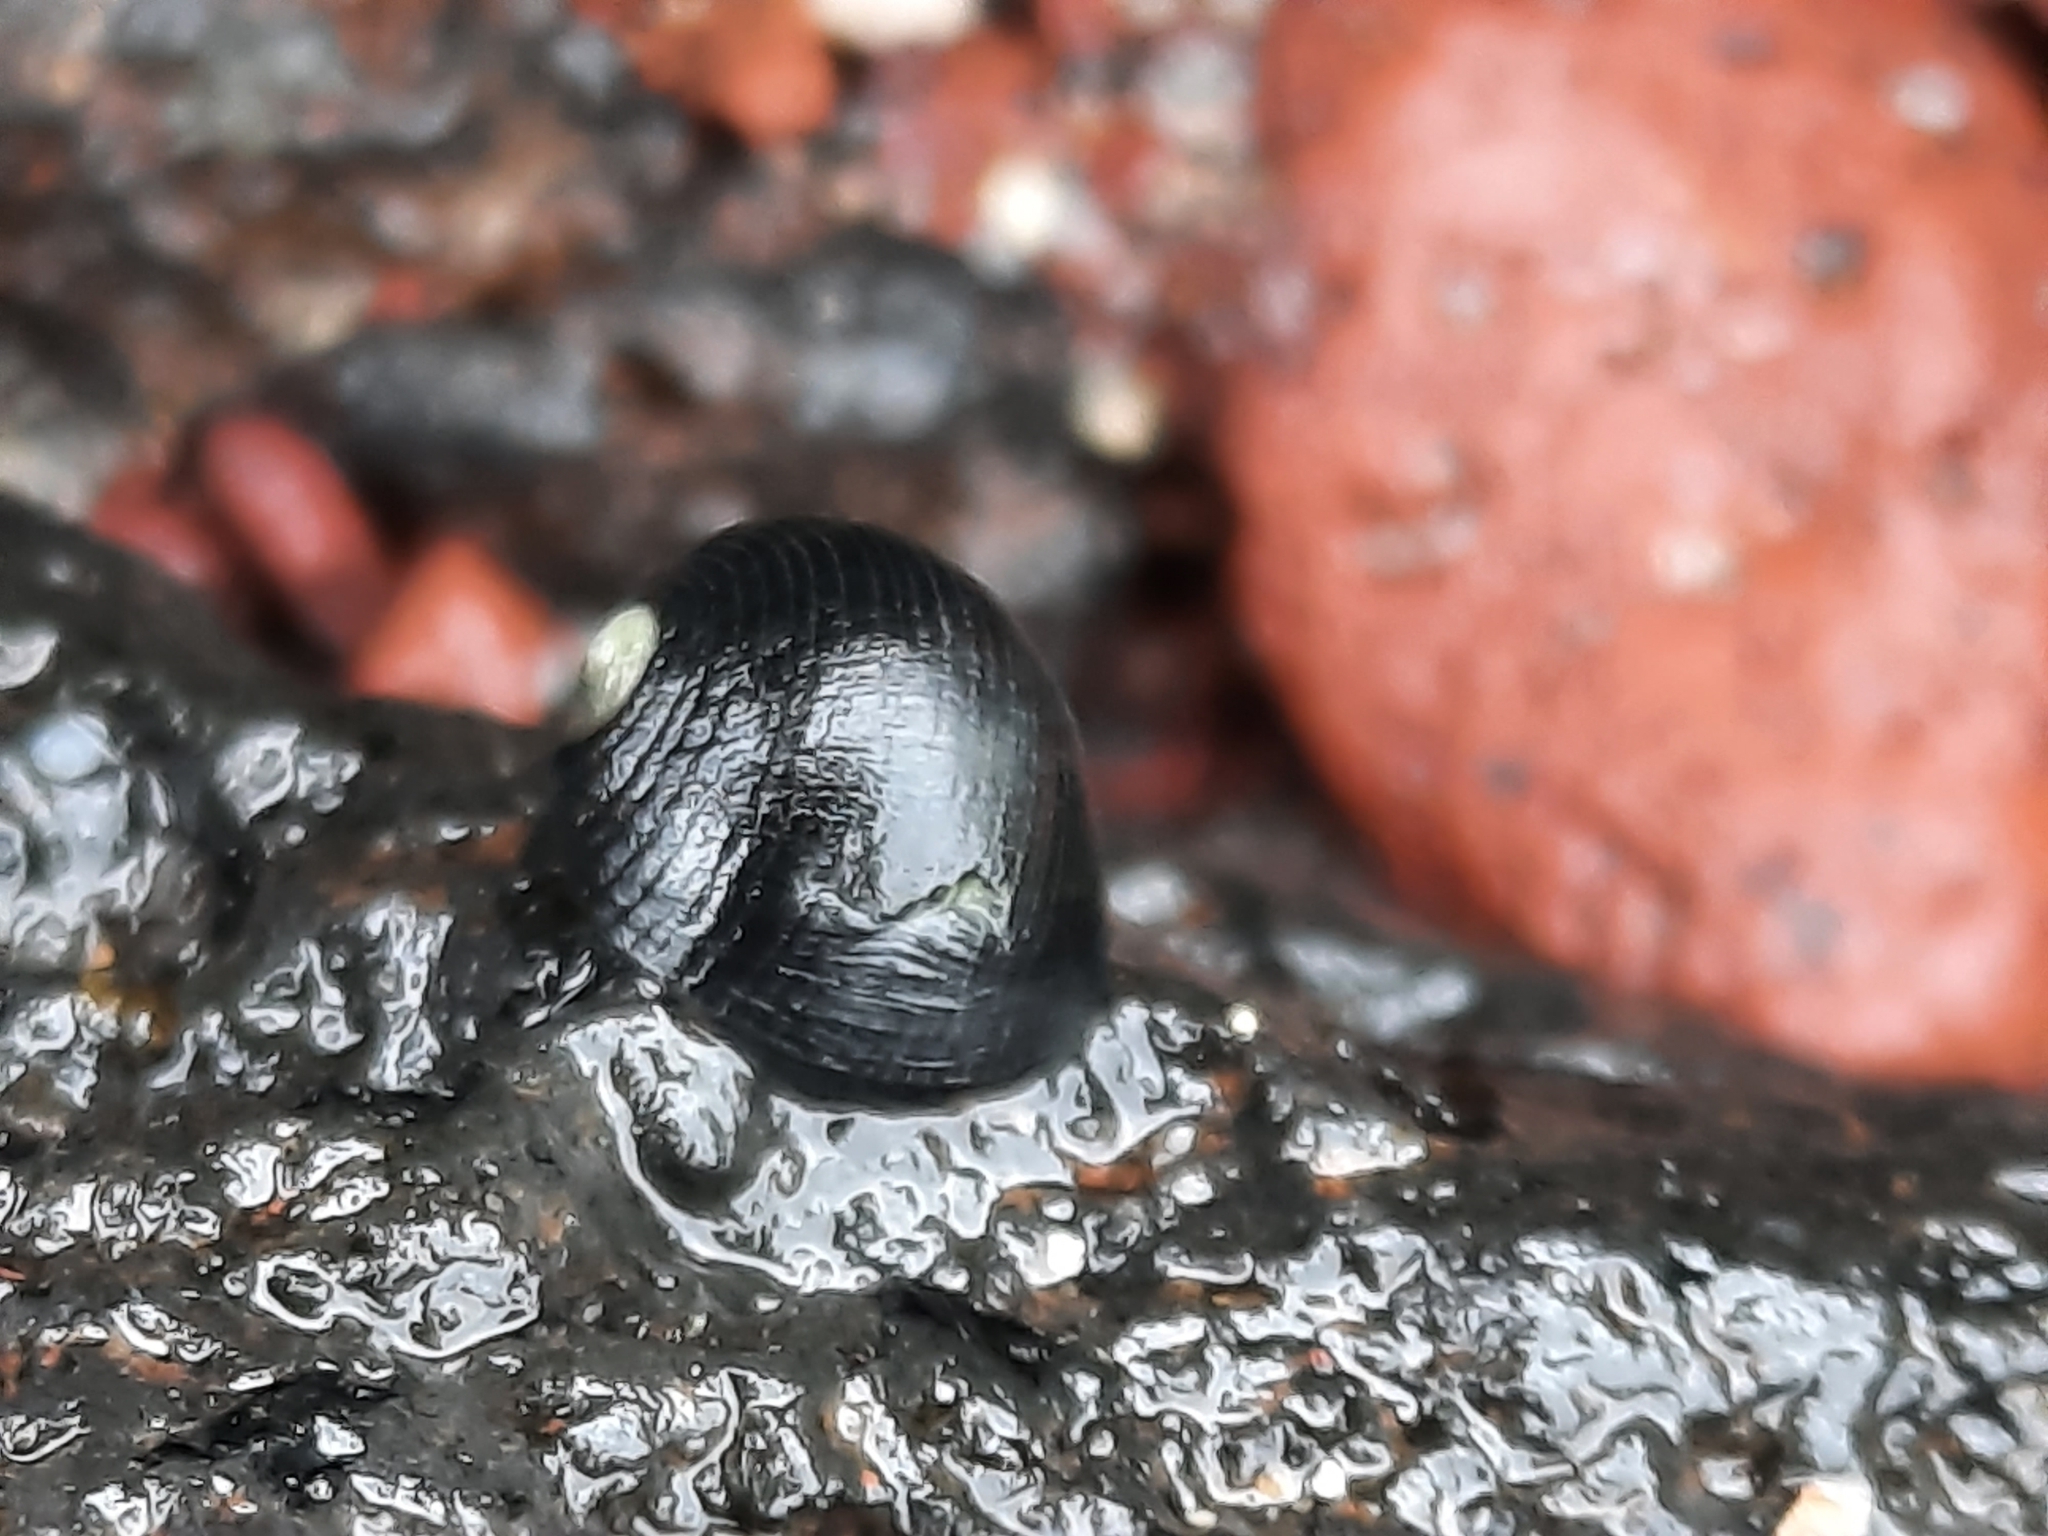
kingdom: Animalia
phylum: Mollusca
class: Gastropoda
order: Cycloneritida
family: Neritidae
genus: Nerita
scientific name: Nerita picea
